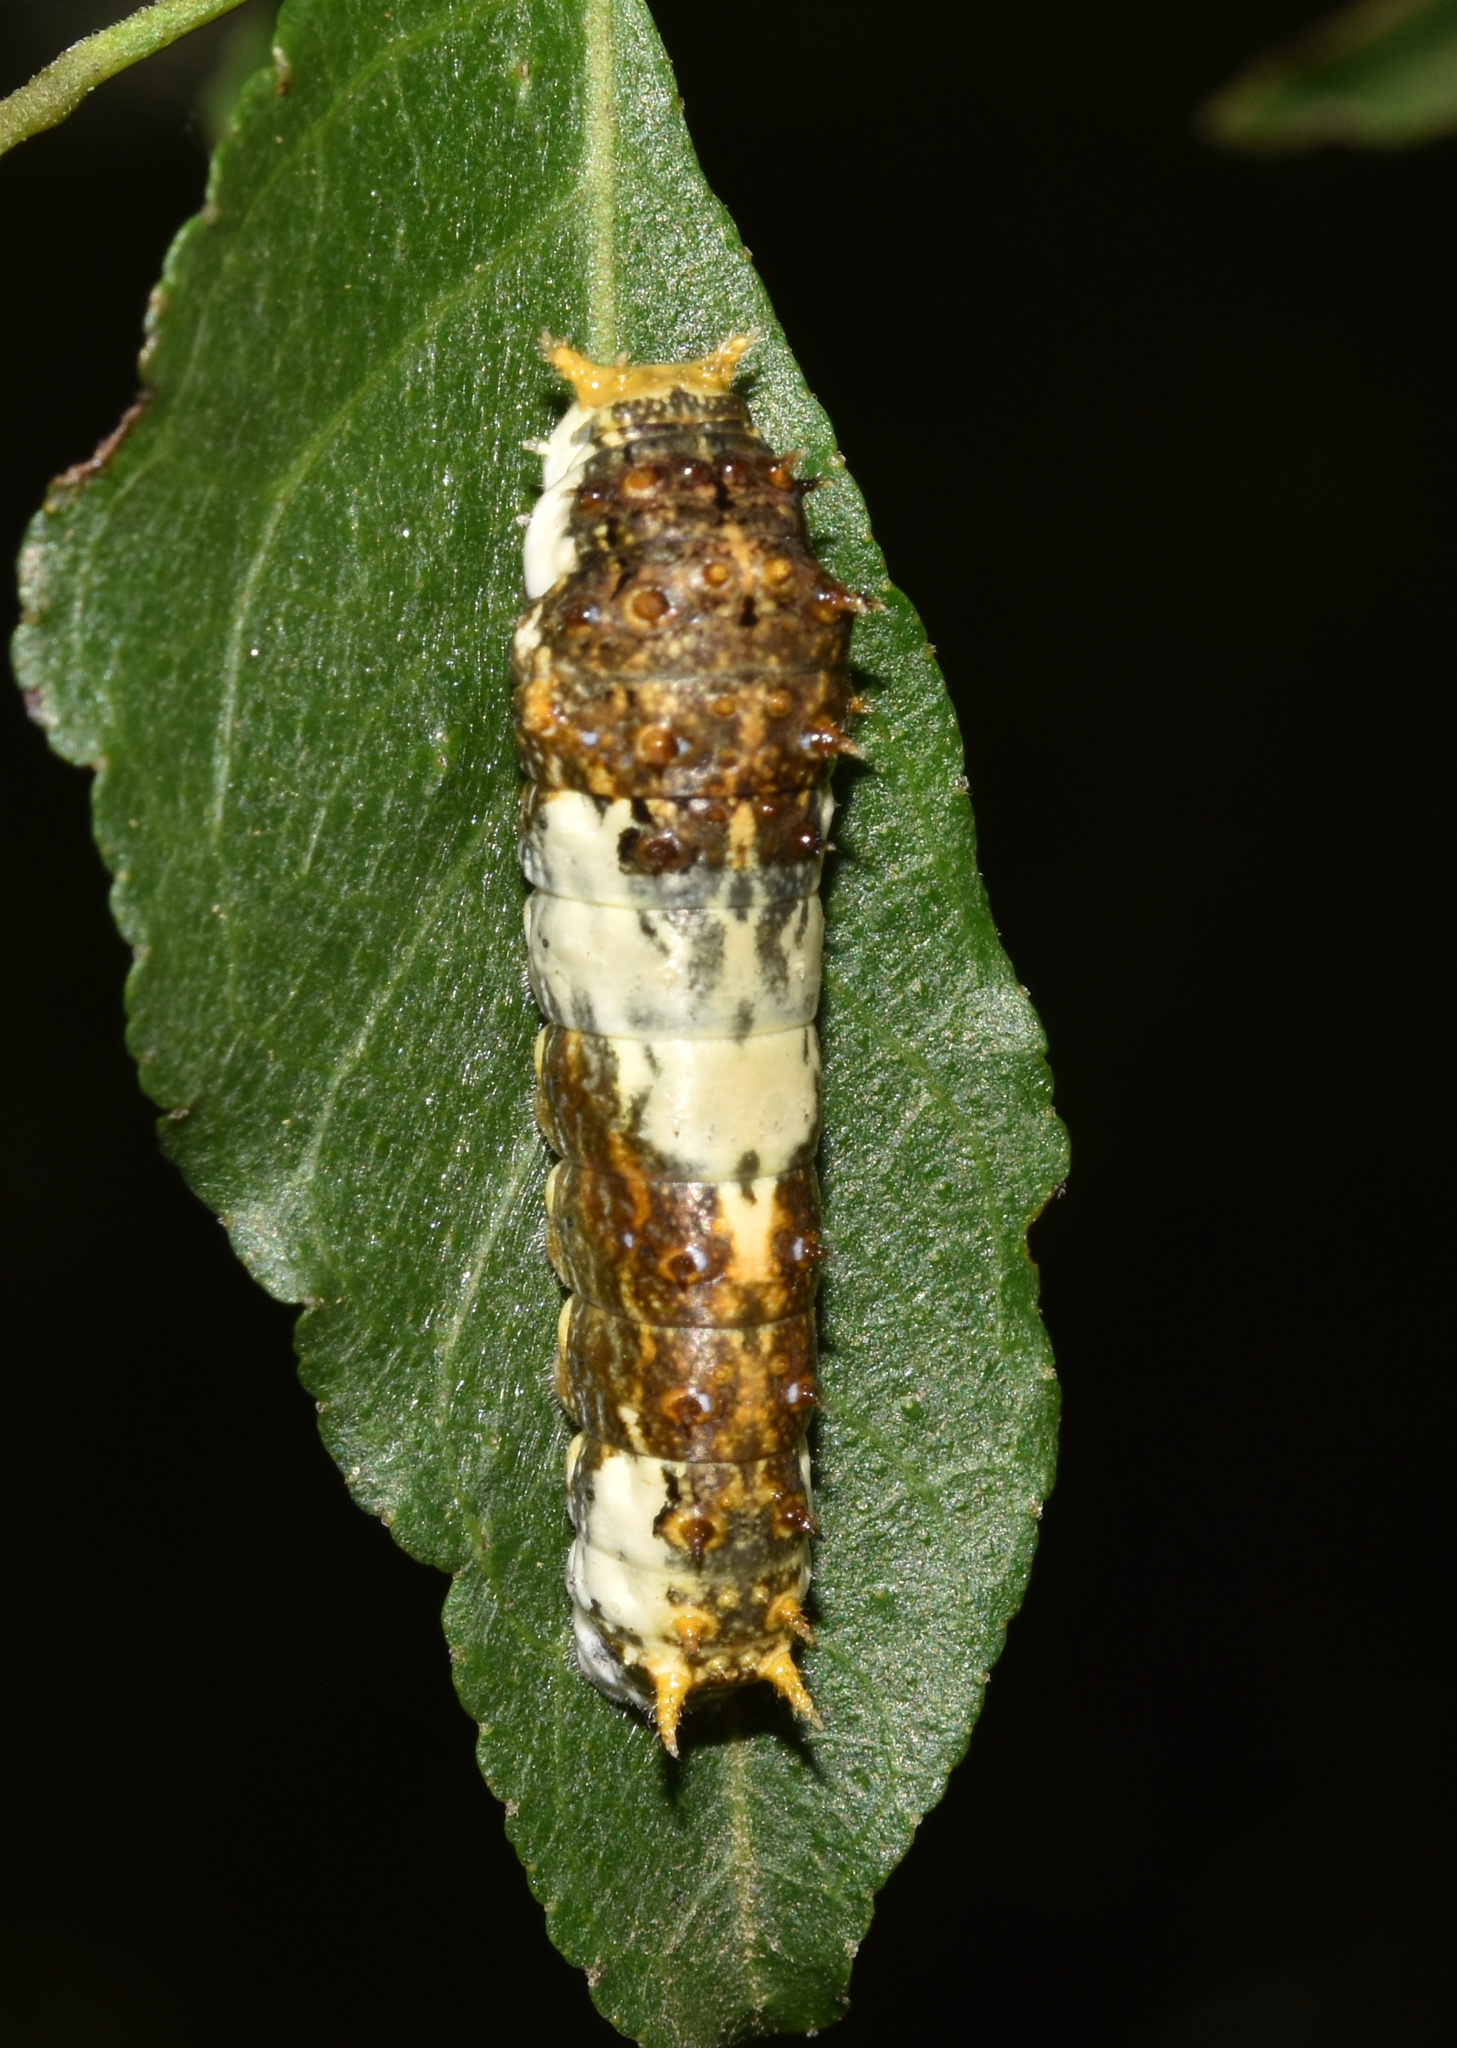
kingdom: Animalia
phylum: Arthropoda
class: Insecta
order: Lepidoptera
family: Papilionidae
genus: Papilio
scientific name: Papilio demodocus
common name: Christmas butterfly
